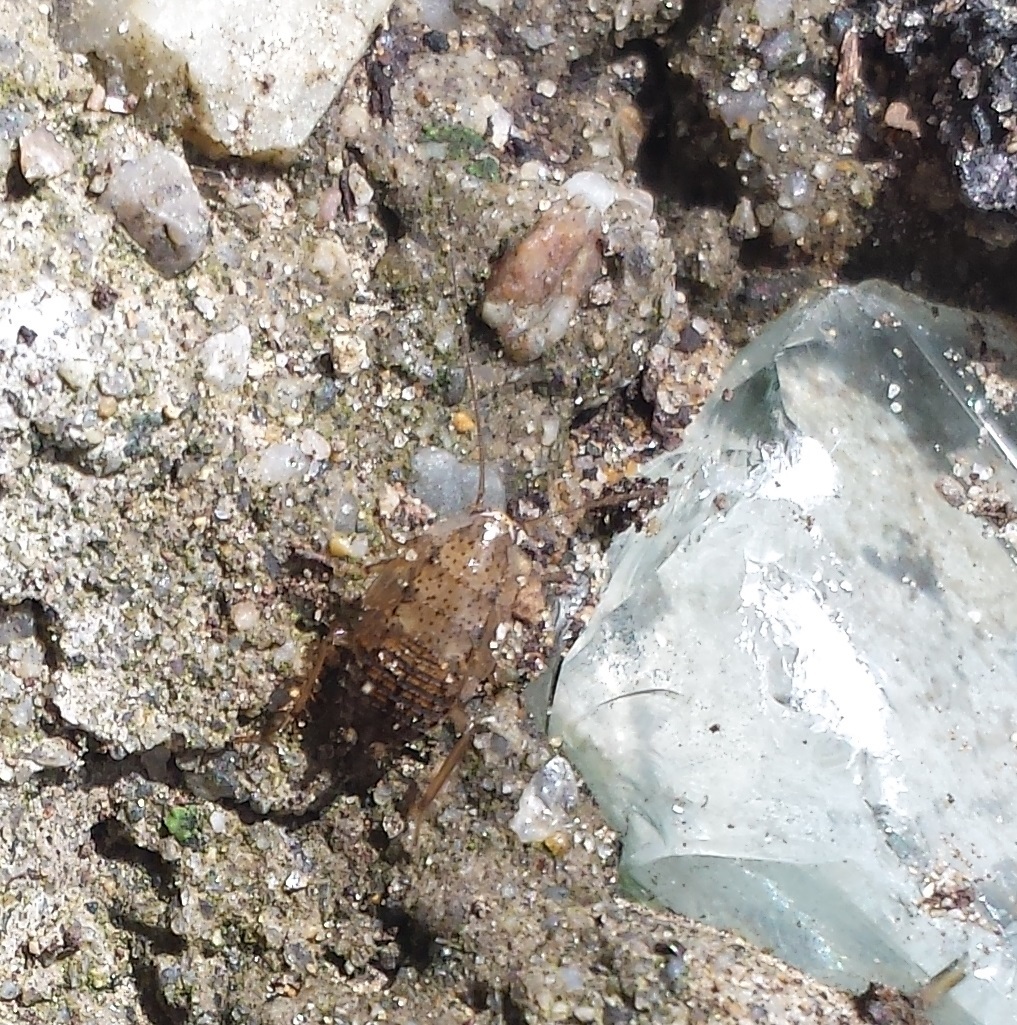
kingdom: Animalia
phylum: Arthropoda
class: Insecta
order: Blattodea
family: Ectobiidae
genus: Ectobius
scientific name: Ectobius pallidus
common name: Tawny cockroach
